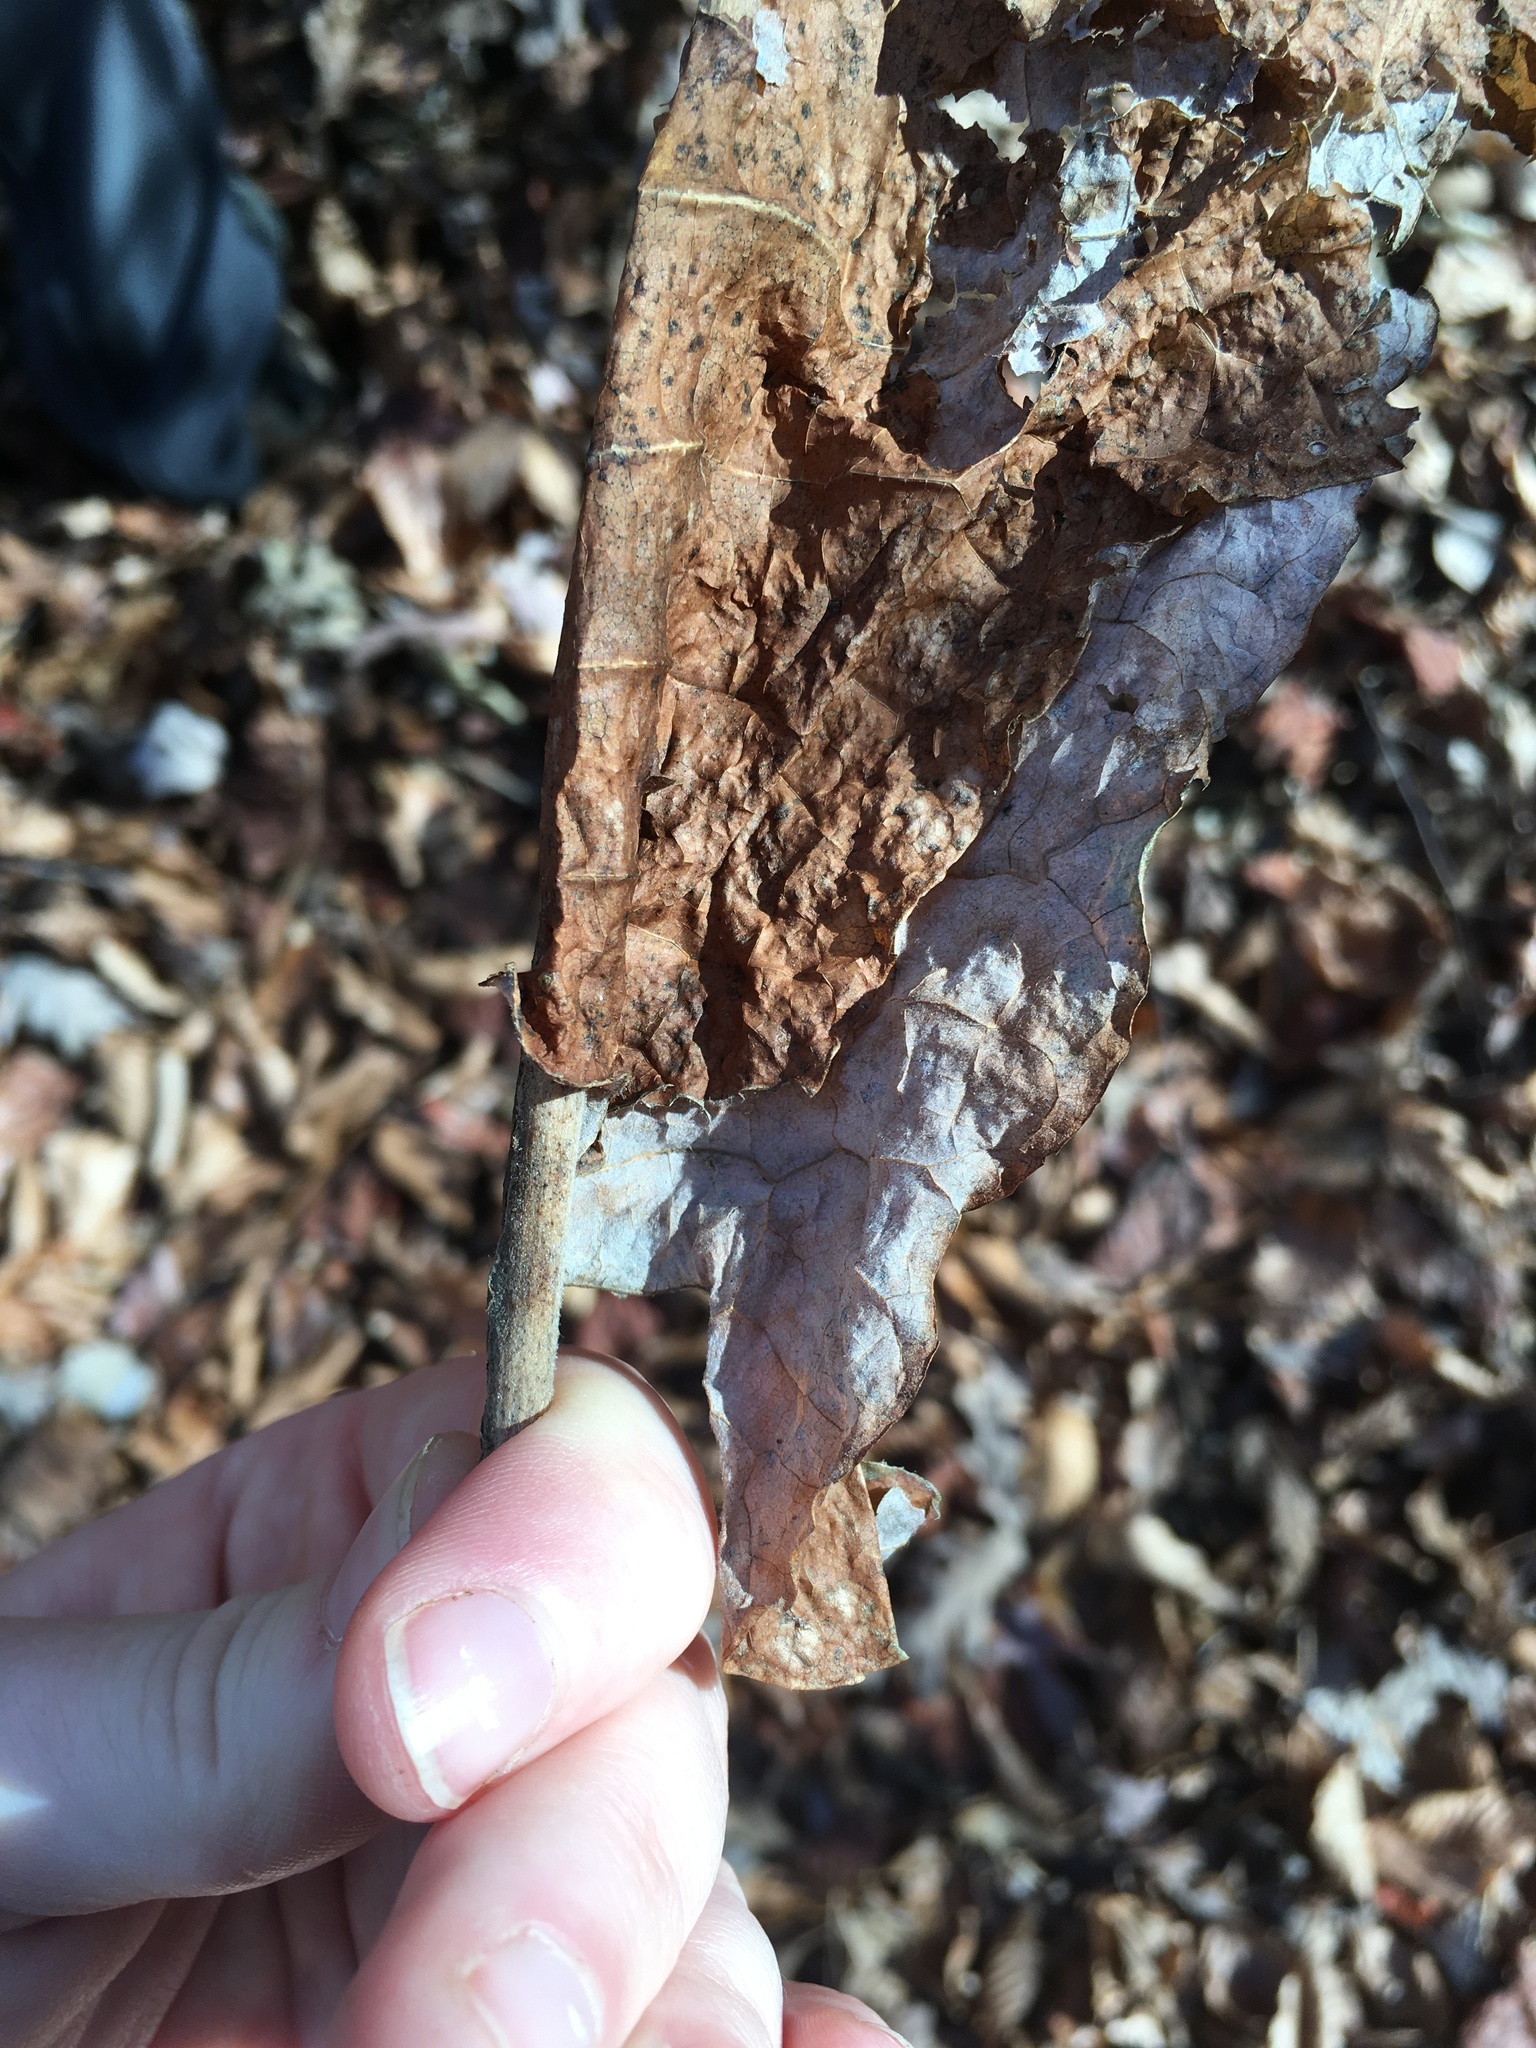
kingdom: Plantae
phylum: Tracheophyta
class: Magnoliopsida
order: Magnoliales
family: Magnoliaceae
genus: Magnolia
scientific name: Magnolia macrophylla
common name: Big-leaf magnolia
